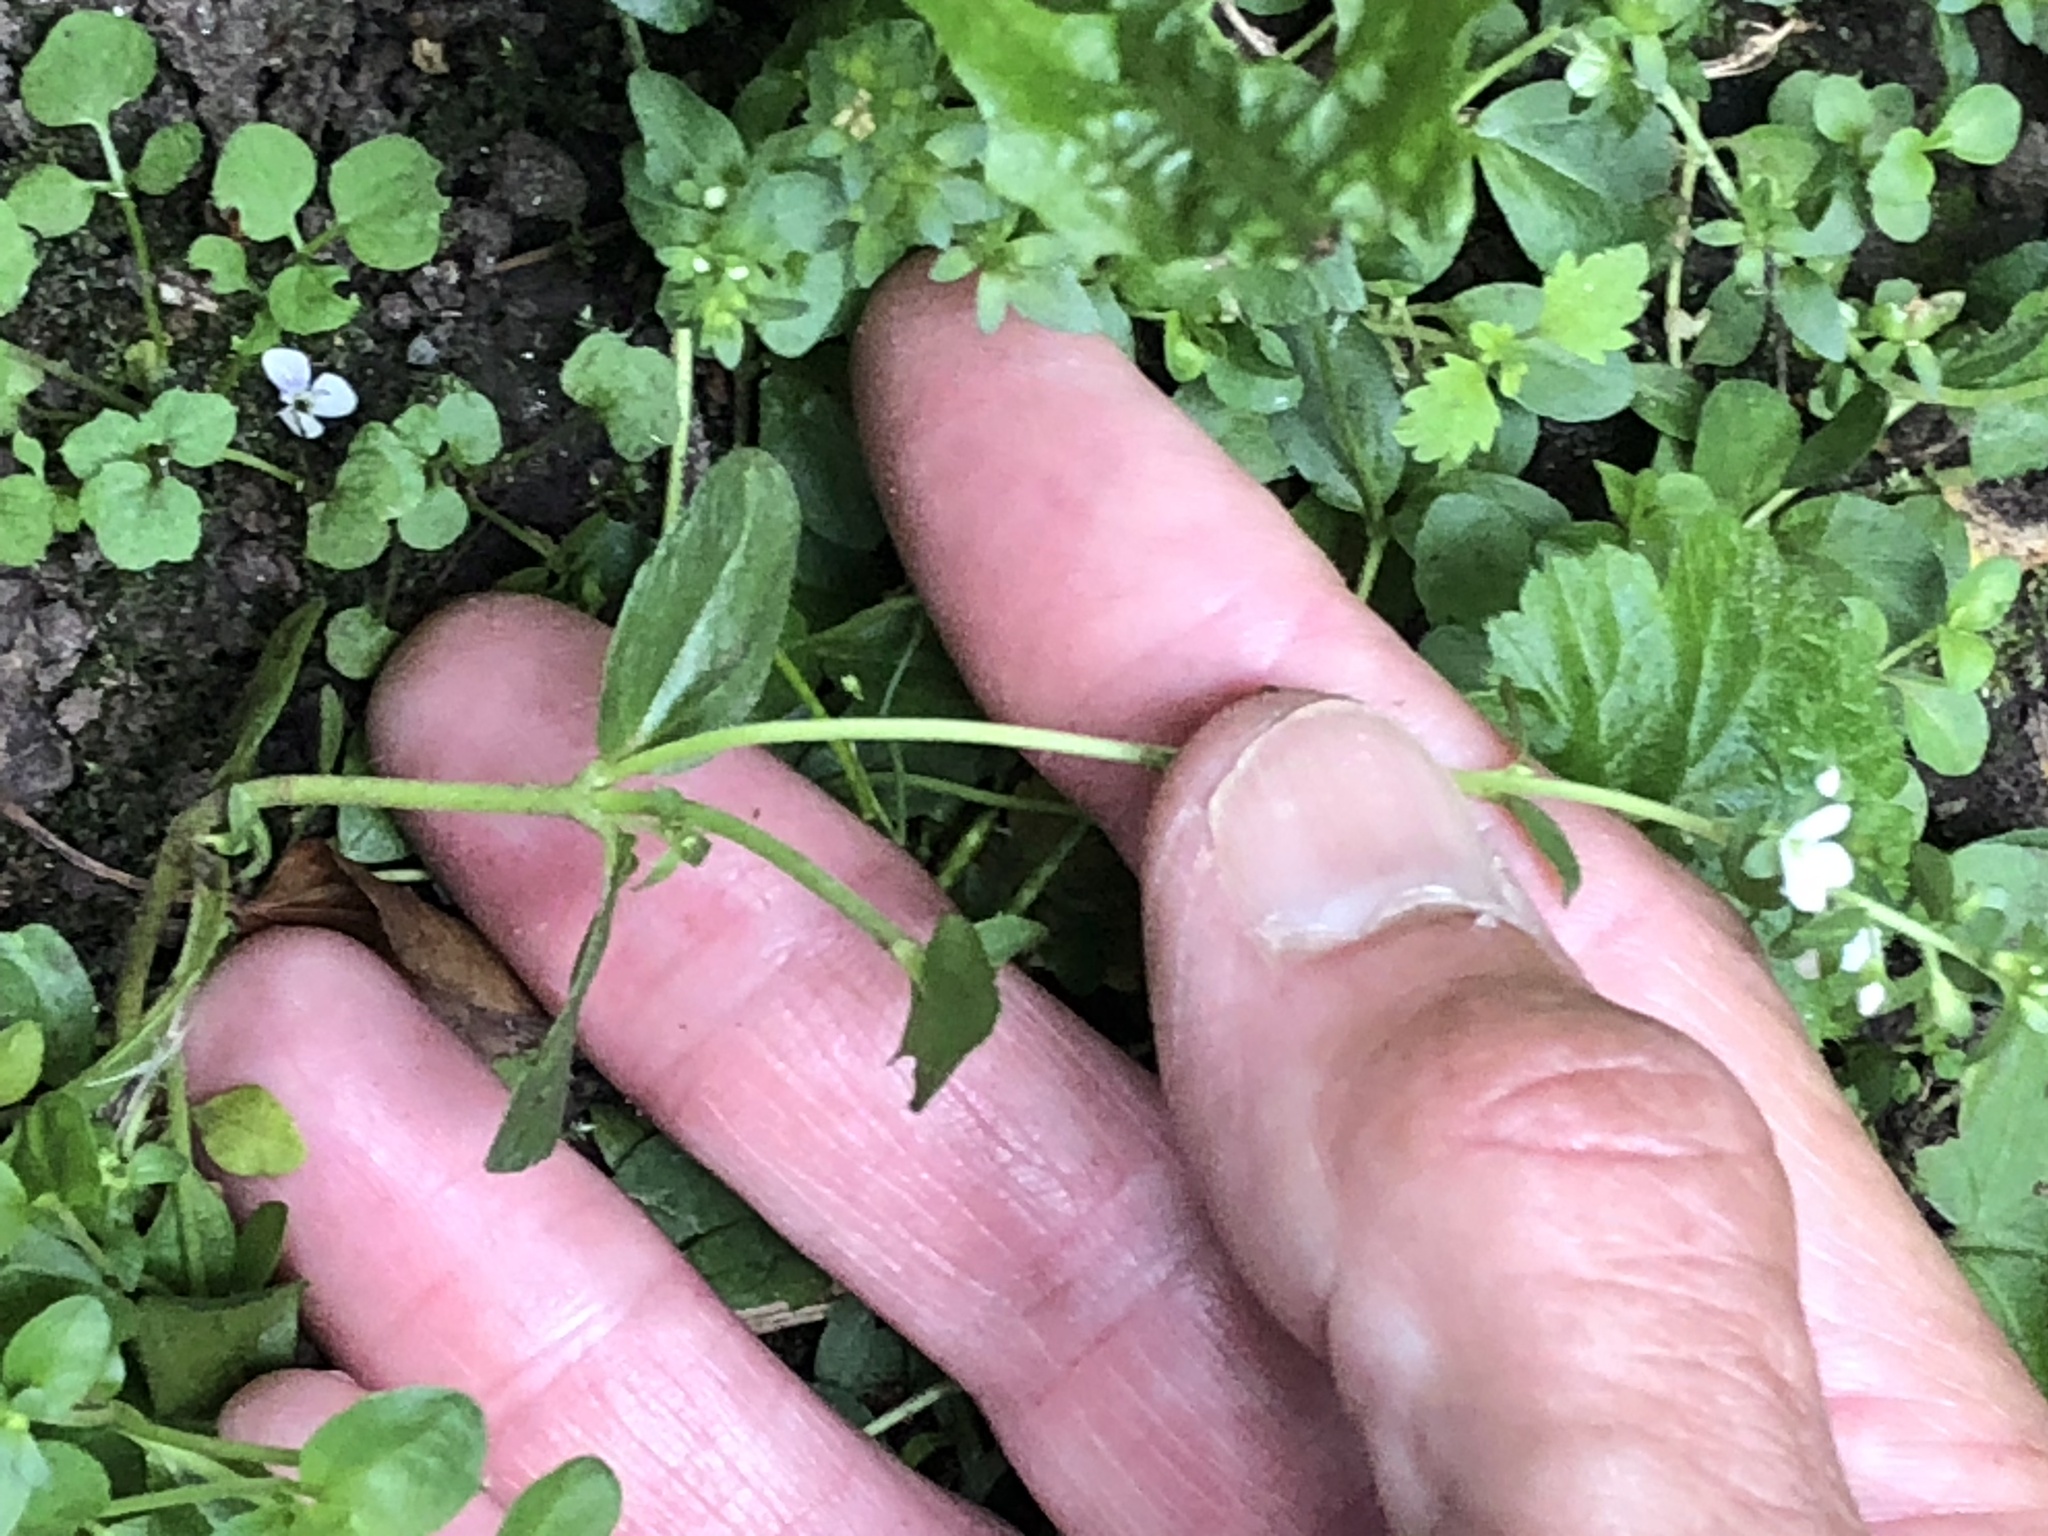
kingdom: Plantae
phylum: Tracheophyta
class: Magnoliopsida
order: Lamiales
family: Plantaginaceae
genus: Veronica
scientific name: Veronica serpyllifolia
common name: Thyme-leaved speedwell
